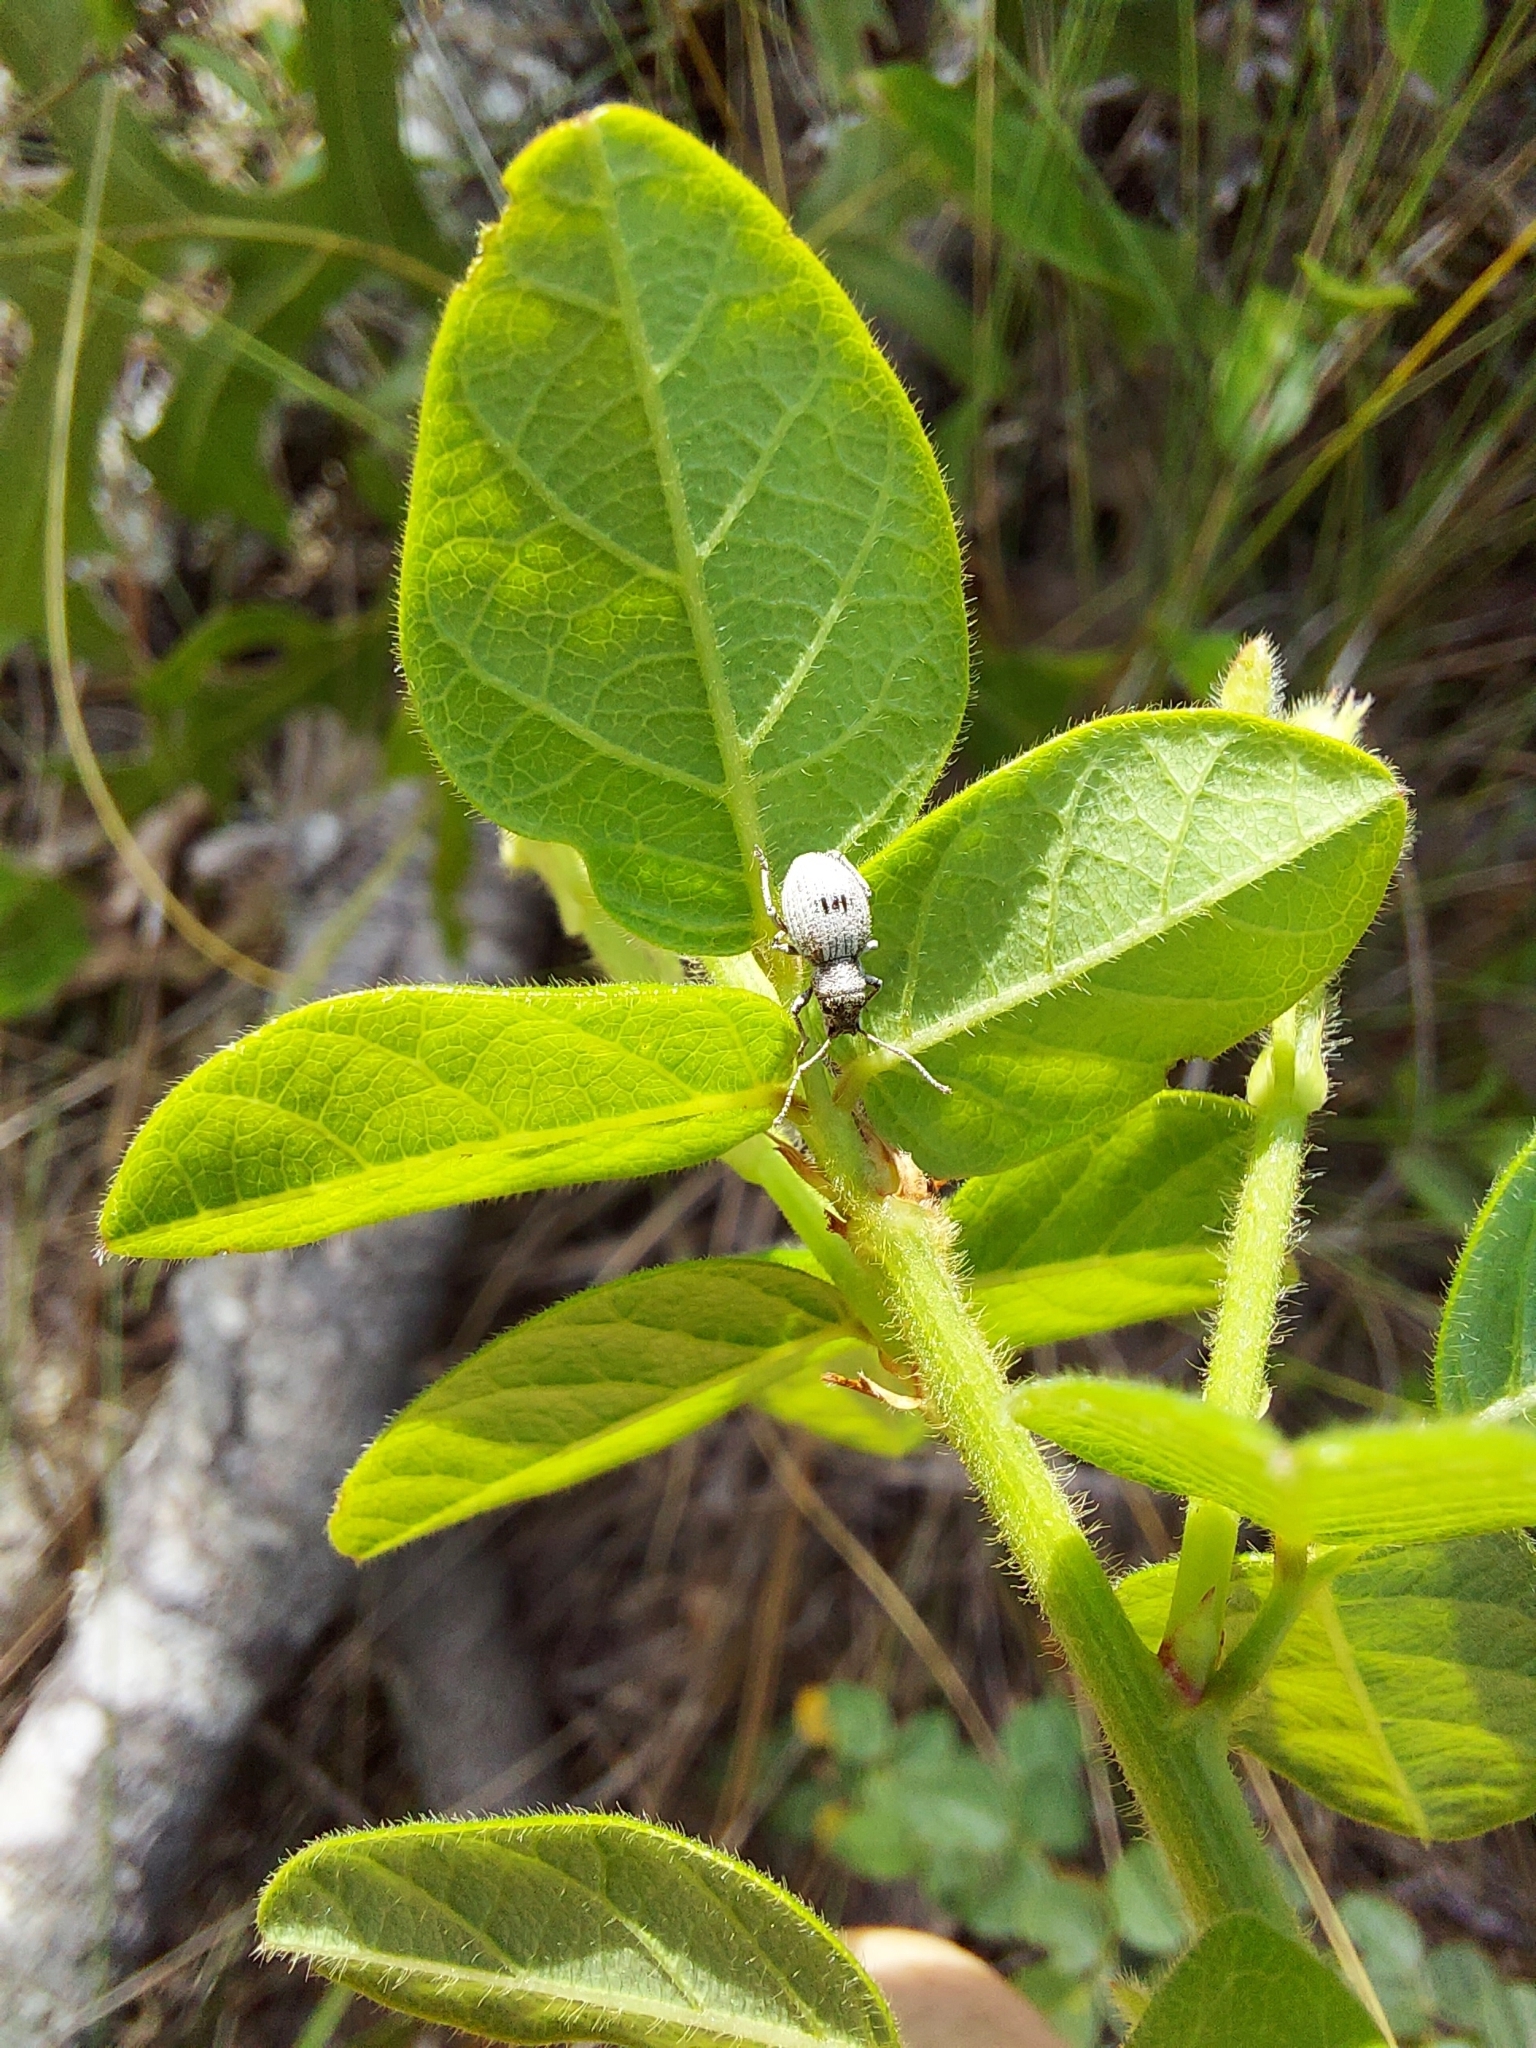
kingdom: Animalia
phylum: Arthropoda
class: Insecta
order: Coleoptera
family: Curculionidae
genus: Neoptochus
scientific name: Neoptochus adspersus
